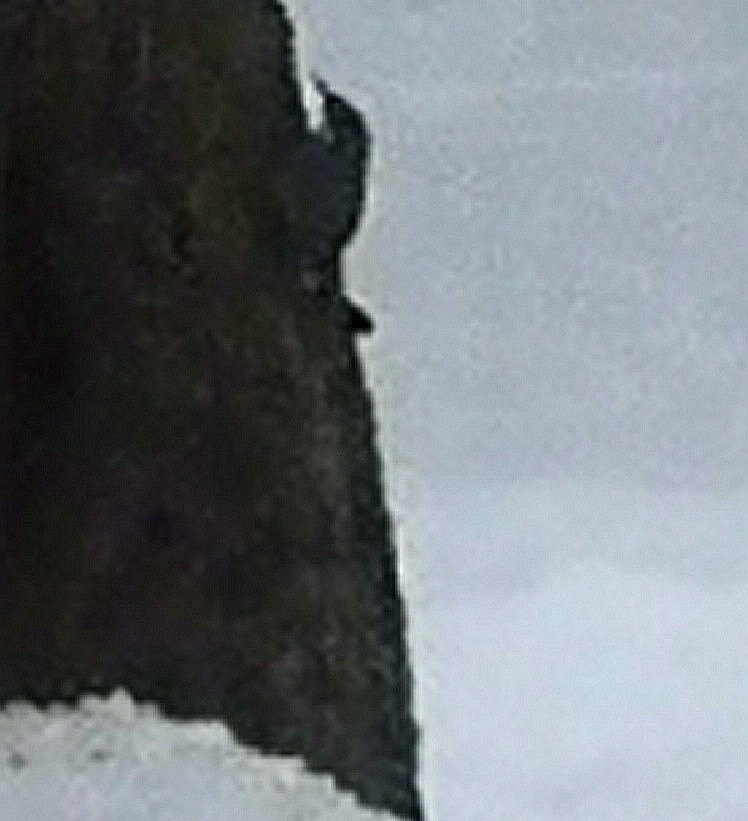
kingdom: Animalia
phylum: Chordata
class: Aves
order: Passeriformes
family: Sittidae
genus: Sitta
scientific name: Sitta europaea
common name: Eurasian nuthatch
